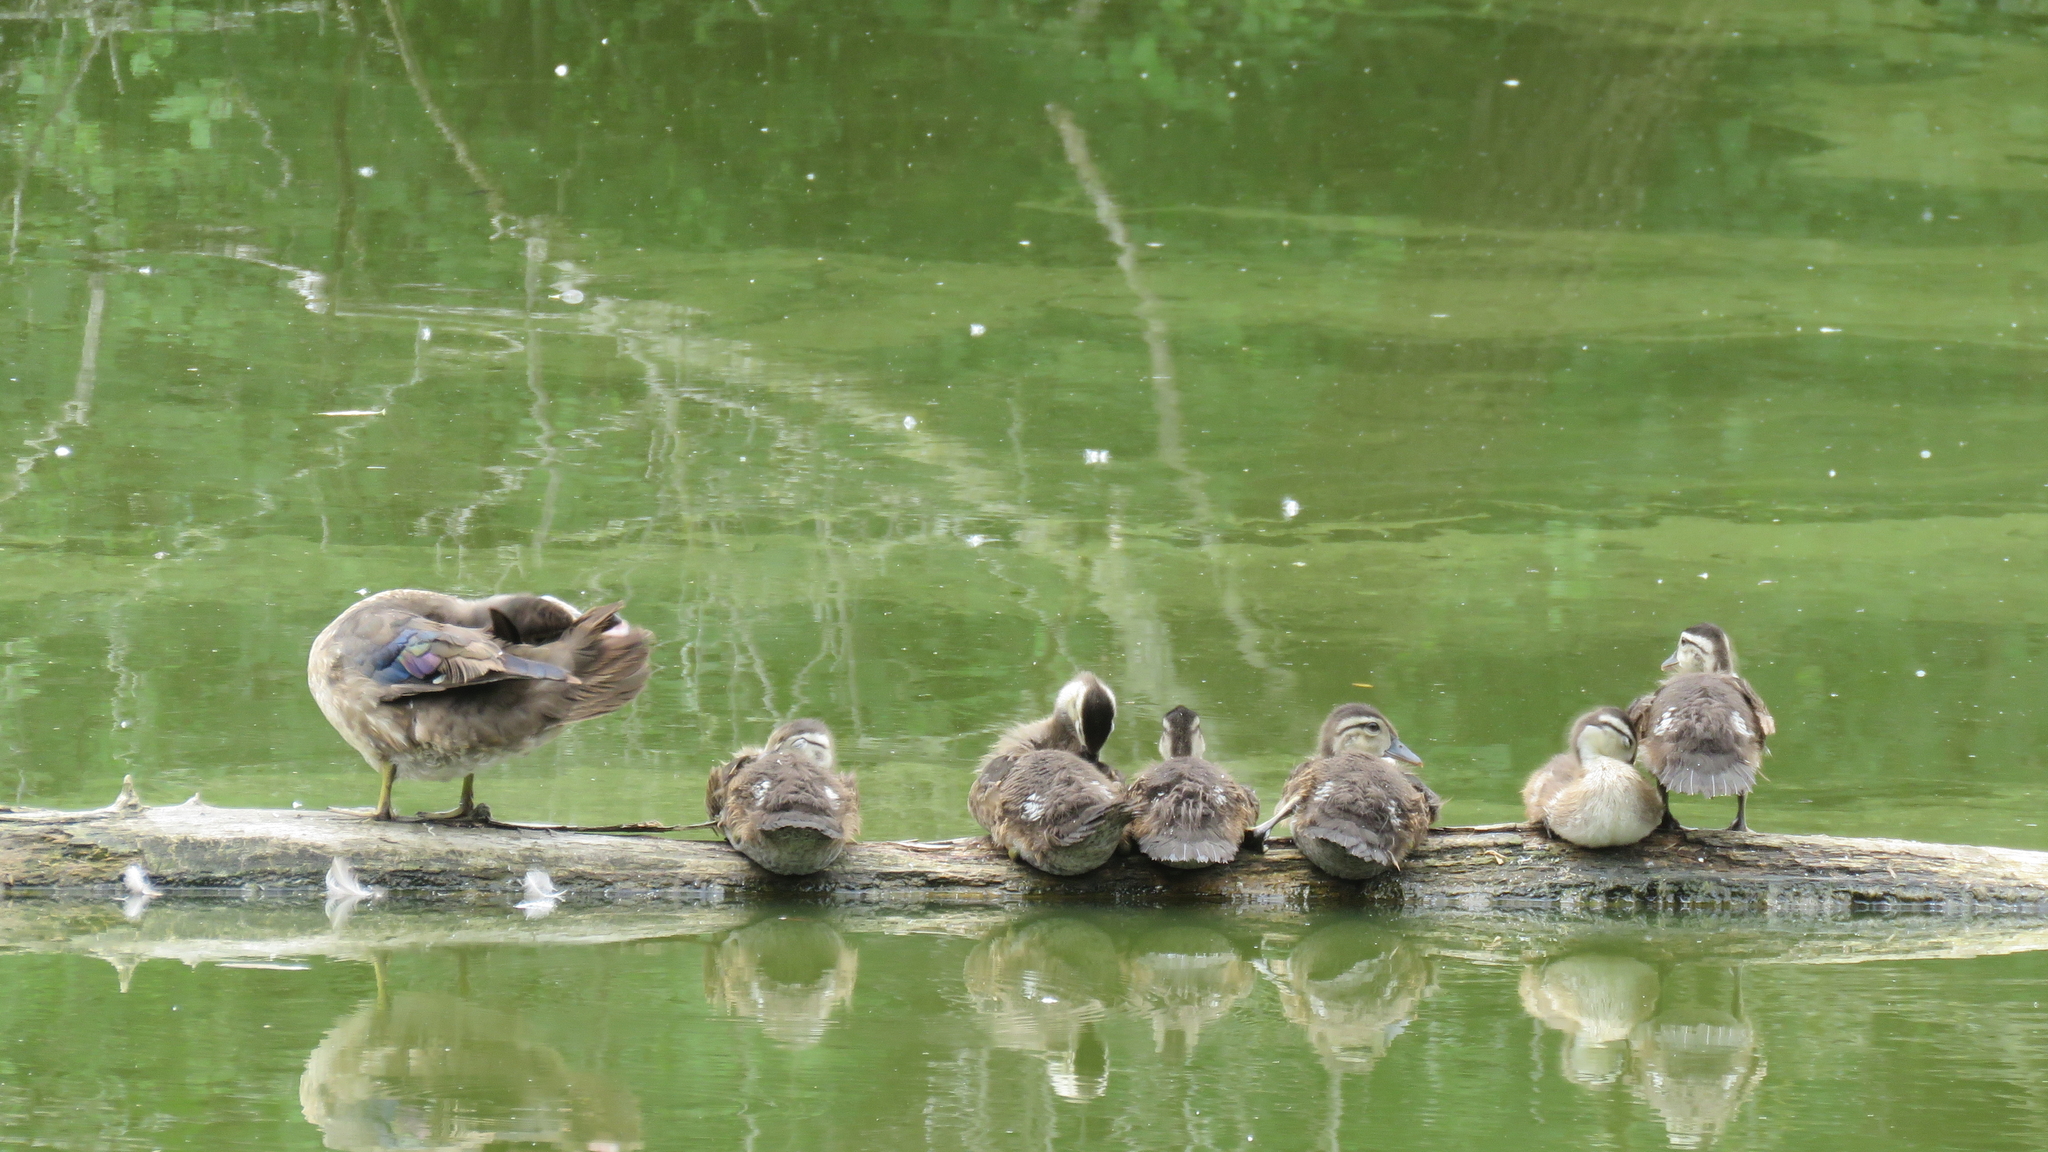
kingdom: Animalia
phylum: Chordata
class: Aves
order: Anseriformes
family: Anatidae
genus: Aix
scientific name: Aix sponsa
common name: Wood duck
